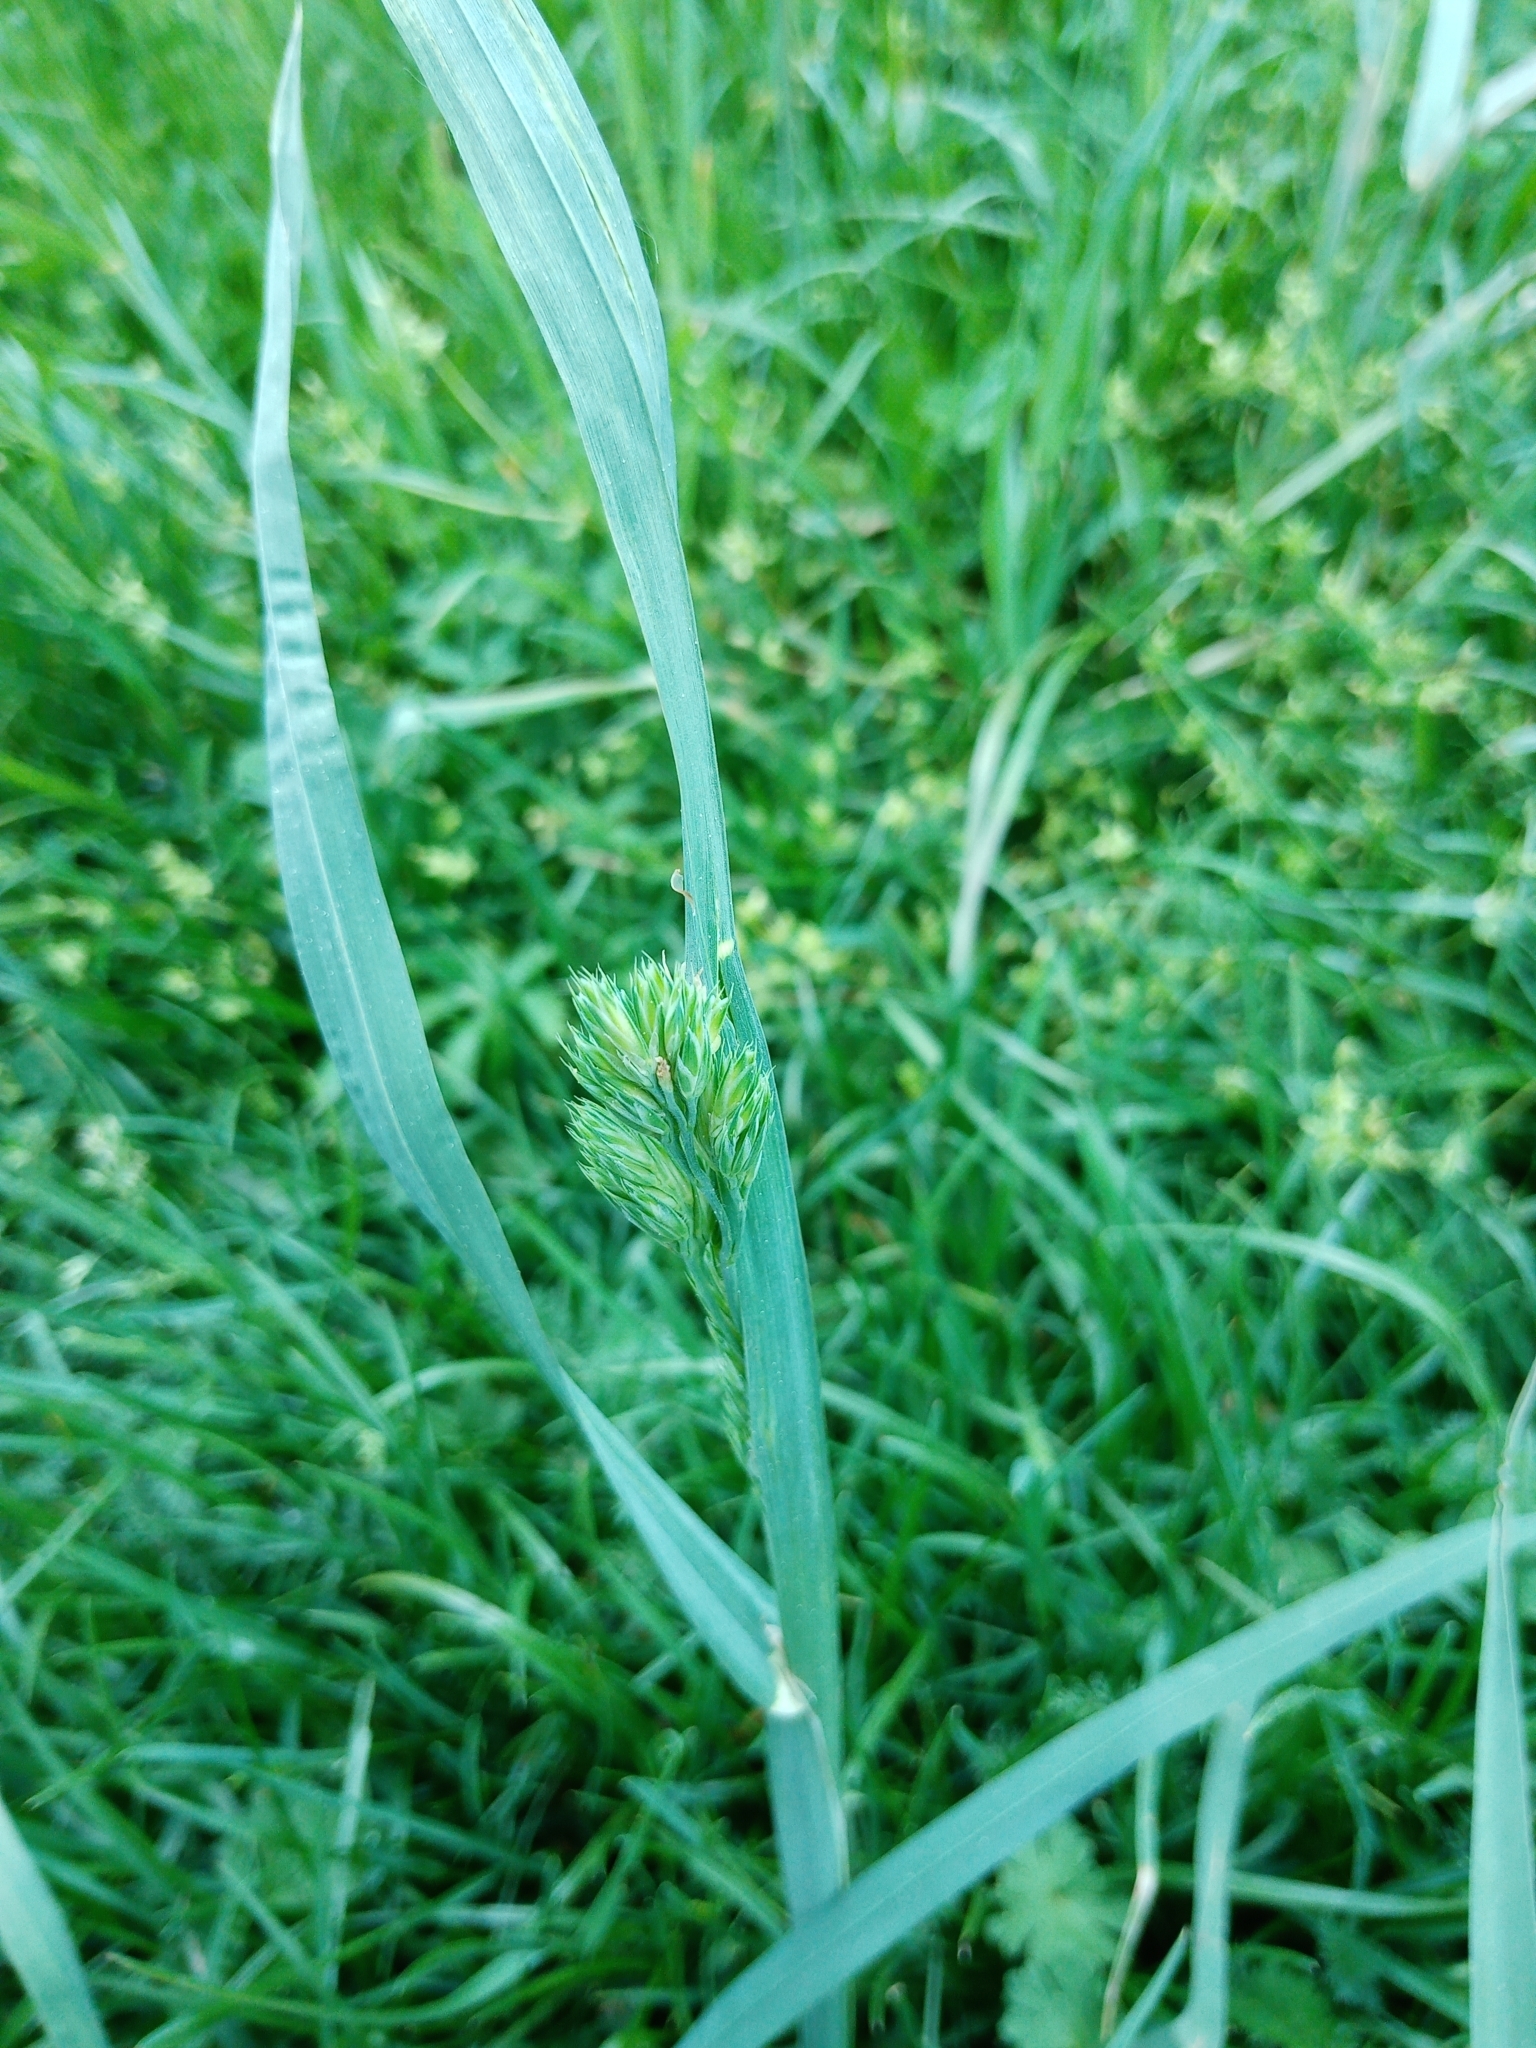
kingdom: Plantae
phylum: Tracheophyta
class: Liliopsida
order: Poales
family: Poaceae
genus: Dactylis
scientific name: Dactylis glomerata
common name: Orchardgrass
